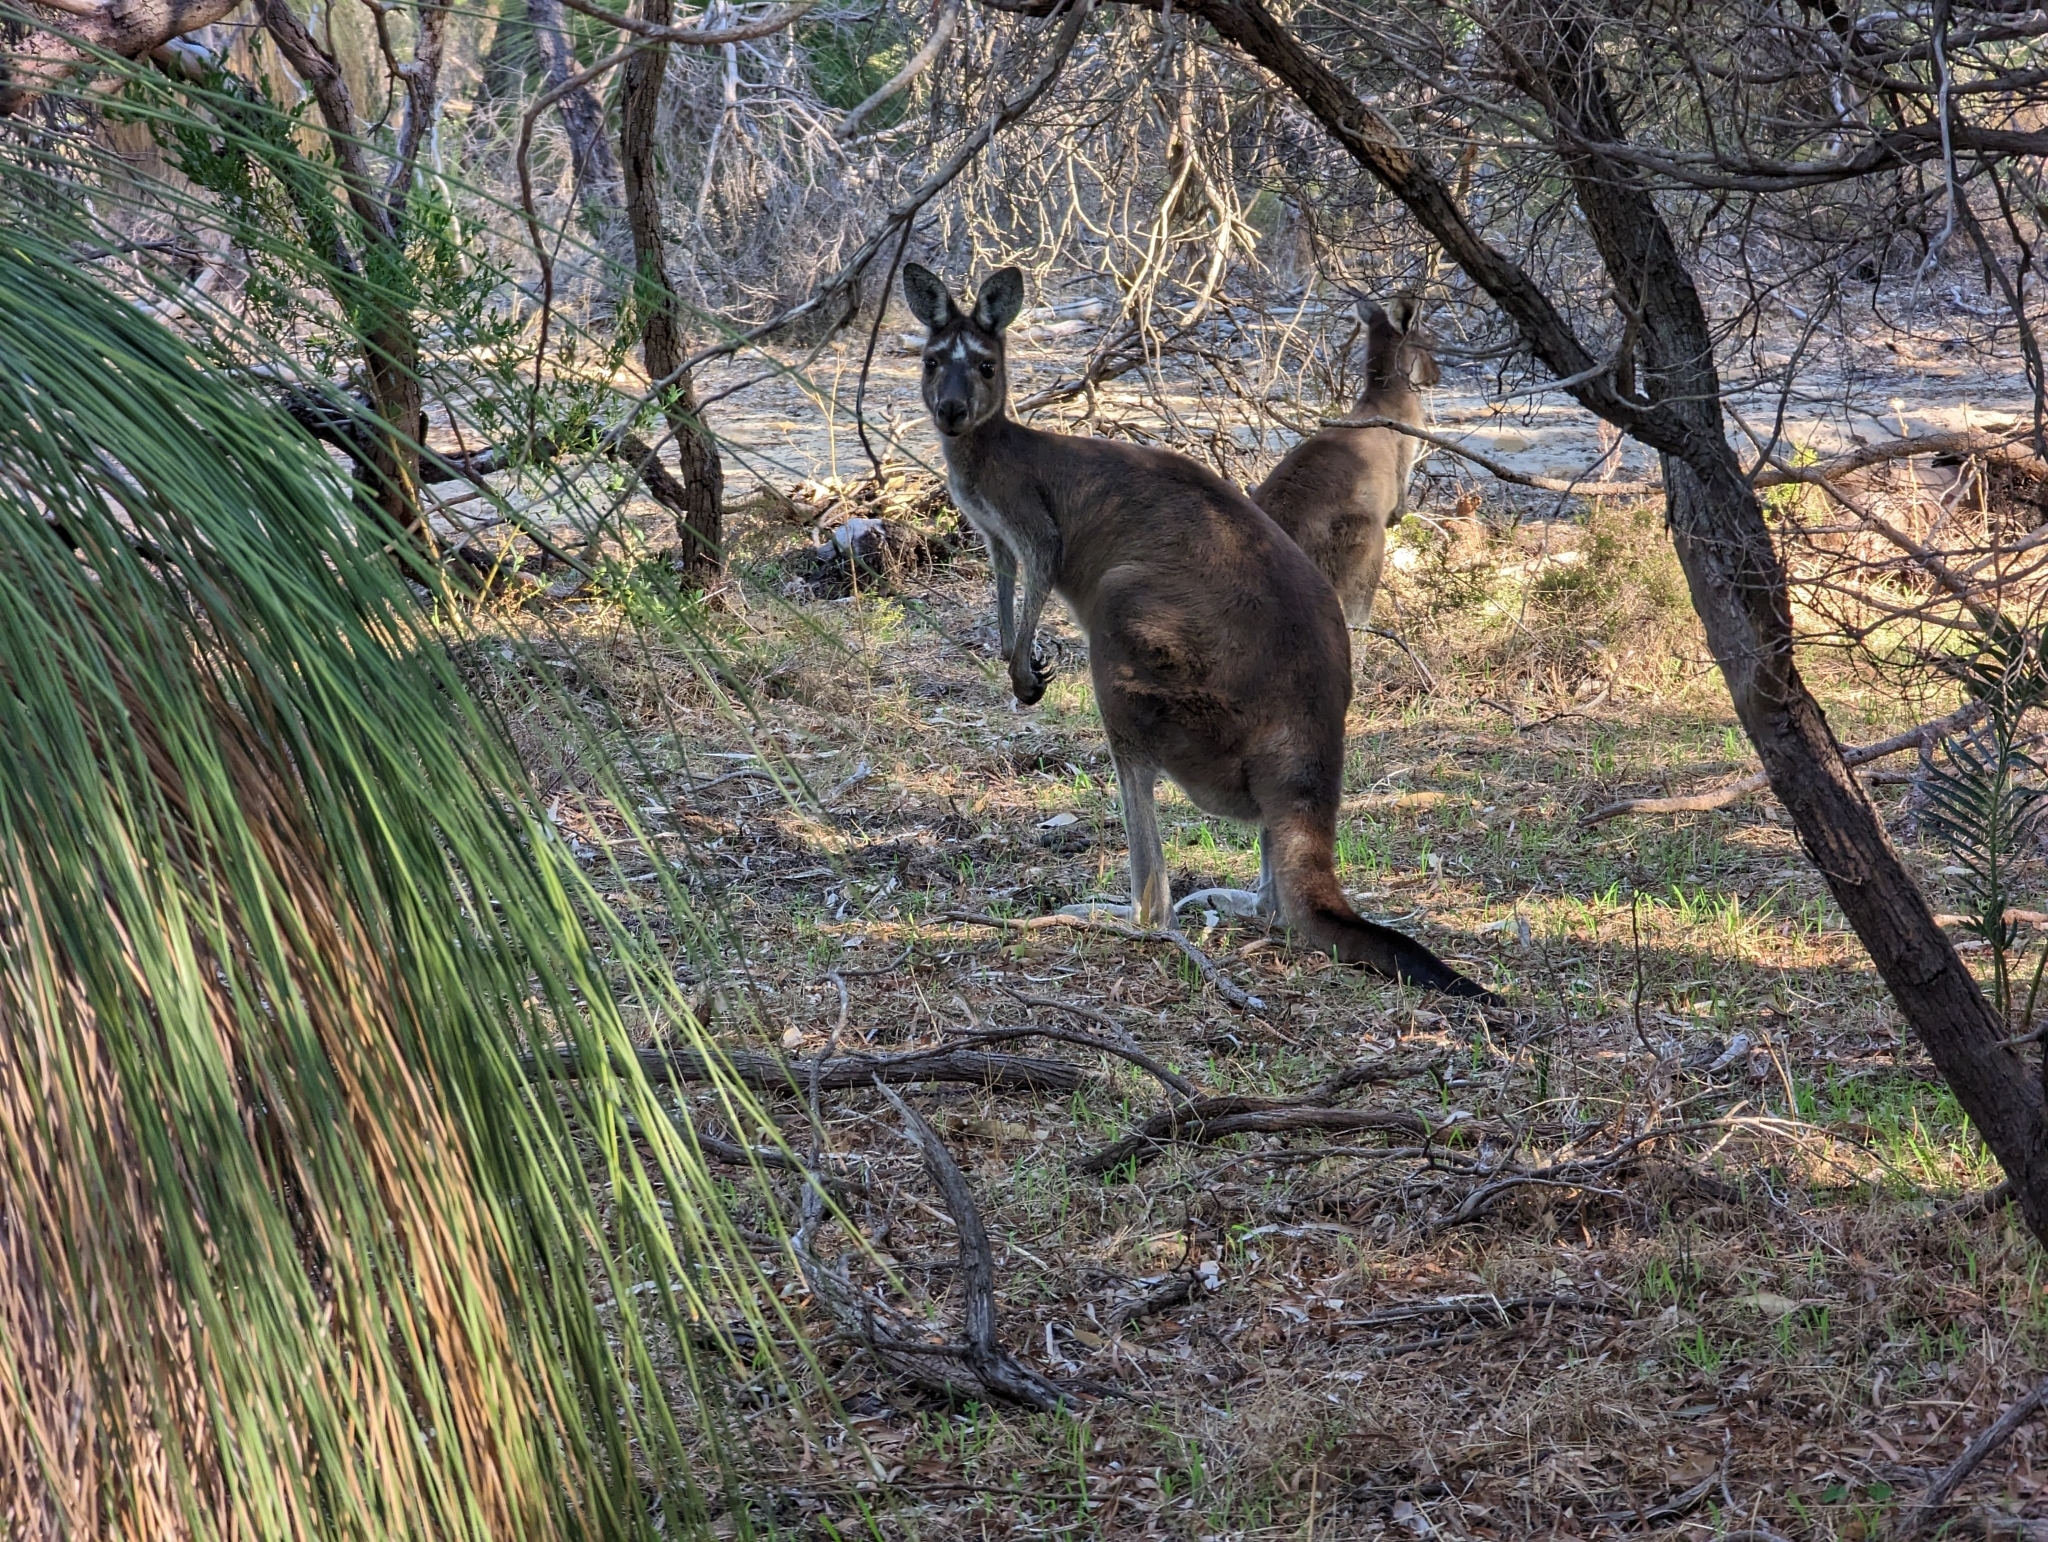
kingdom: Animalia
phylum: Chordata
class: Mammalia
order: Diprotodontia
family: Macropodidae
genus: Macropus
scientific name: Macropus fuliginosus
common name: Western grey kangaroo
